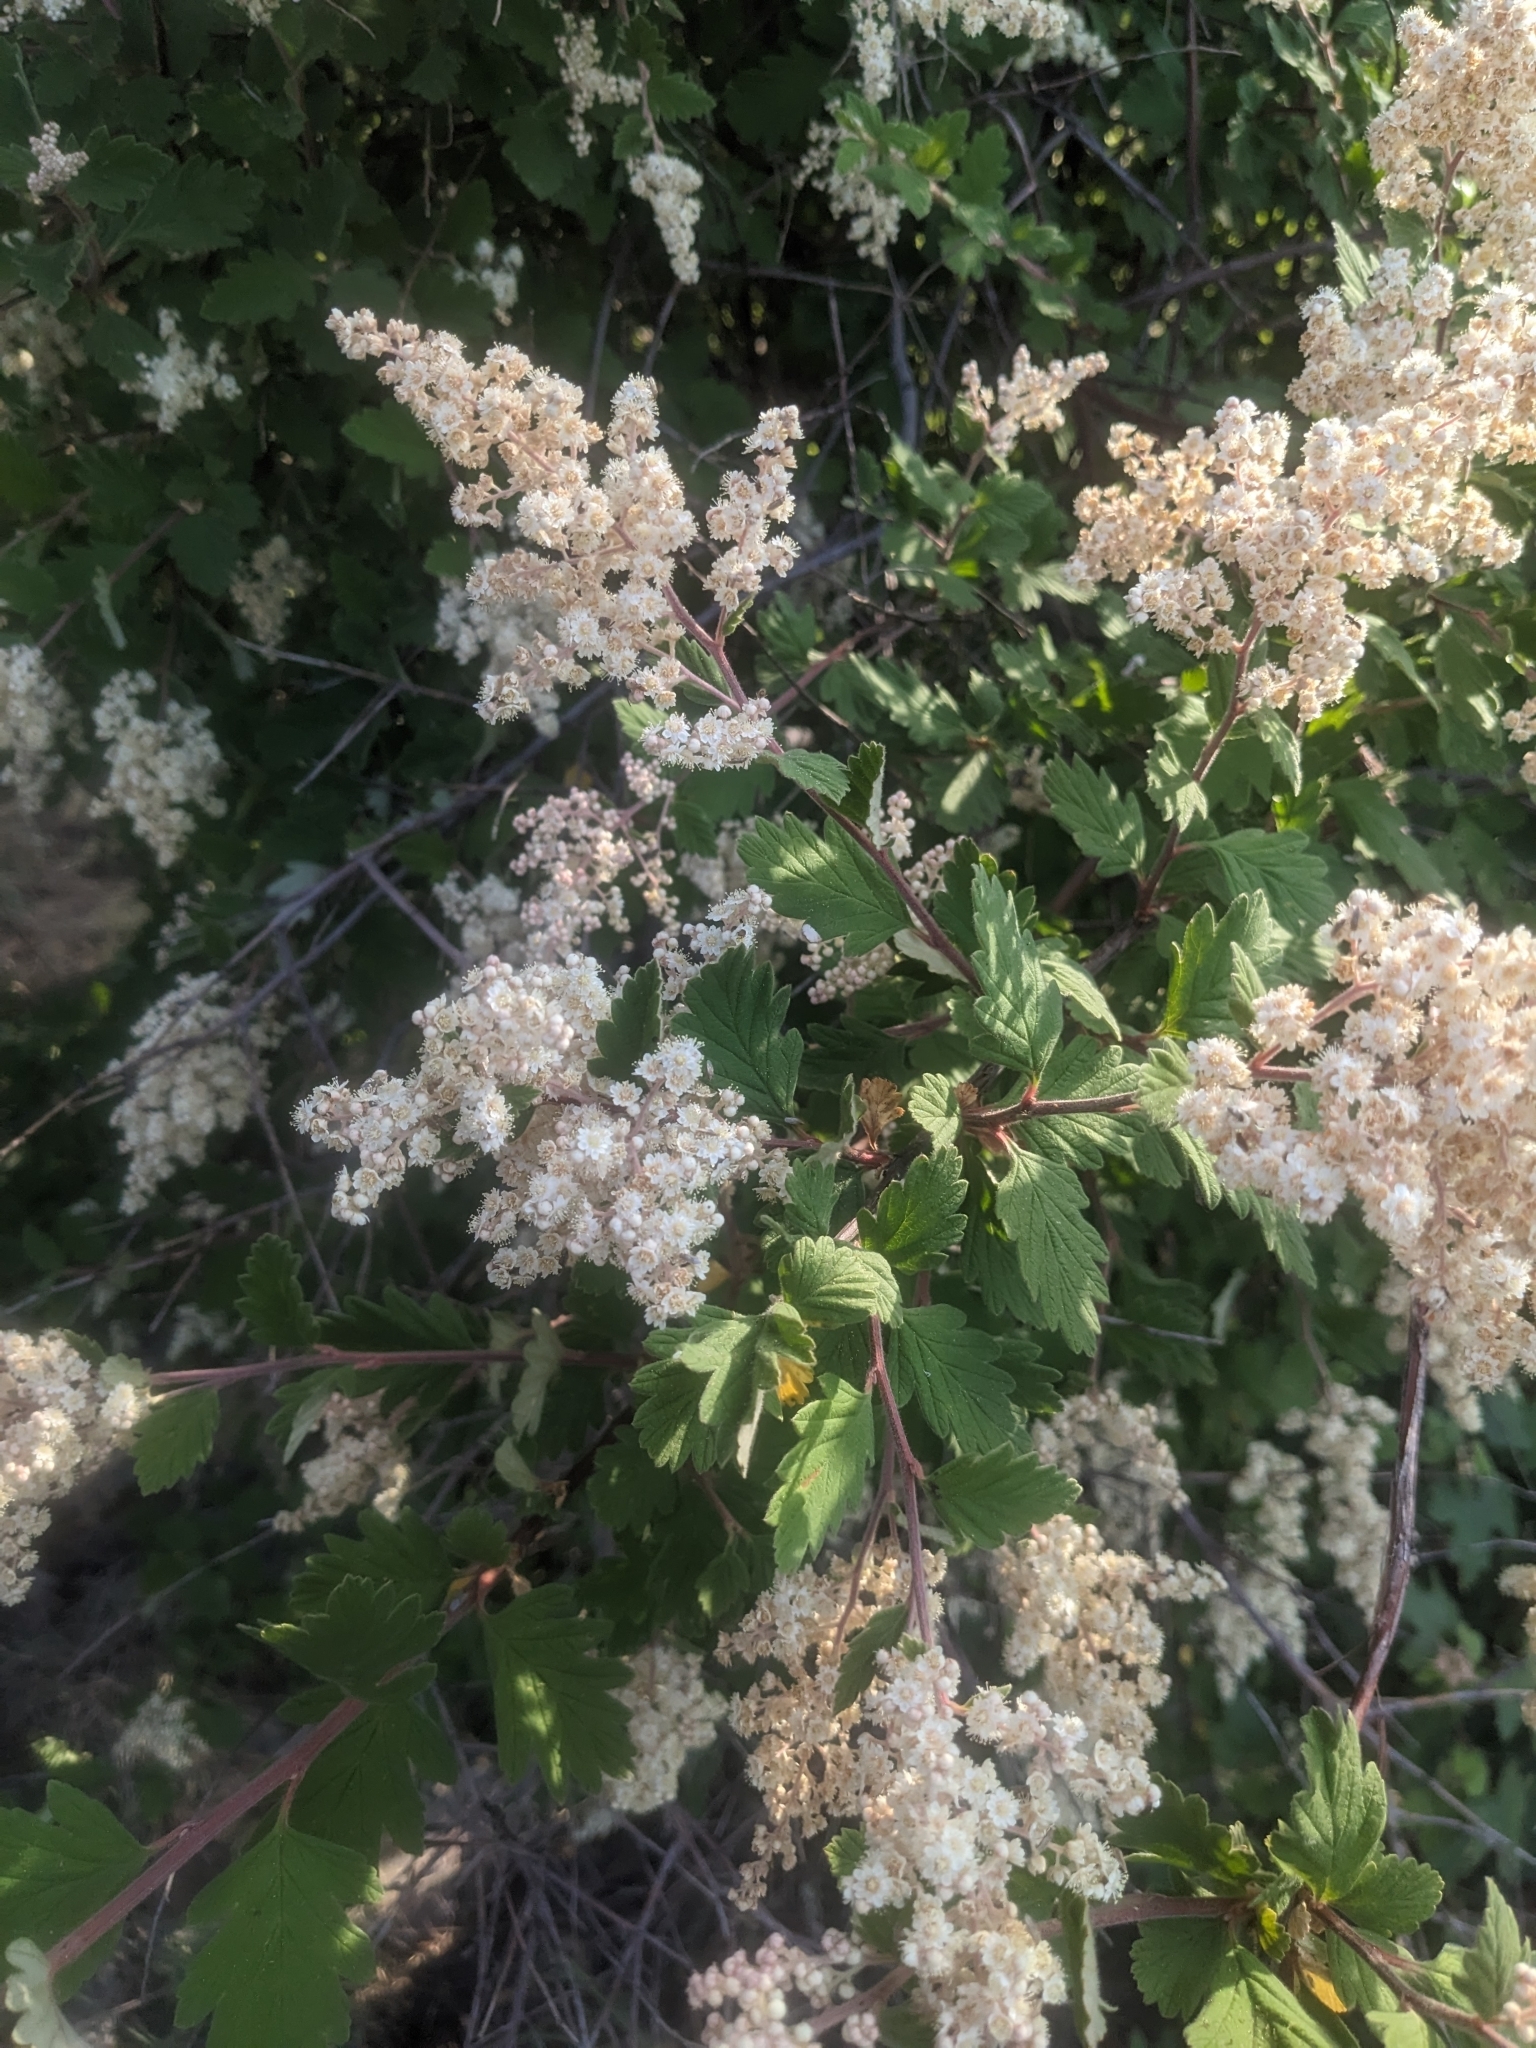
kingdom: Plantae
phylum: Tracheophyta
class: Magnoliopsida
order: Rosales
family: Rosaceae
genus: Holodiscus
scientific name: Holodiscus discolor
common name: Oceanspray
